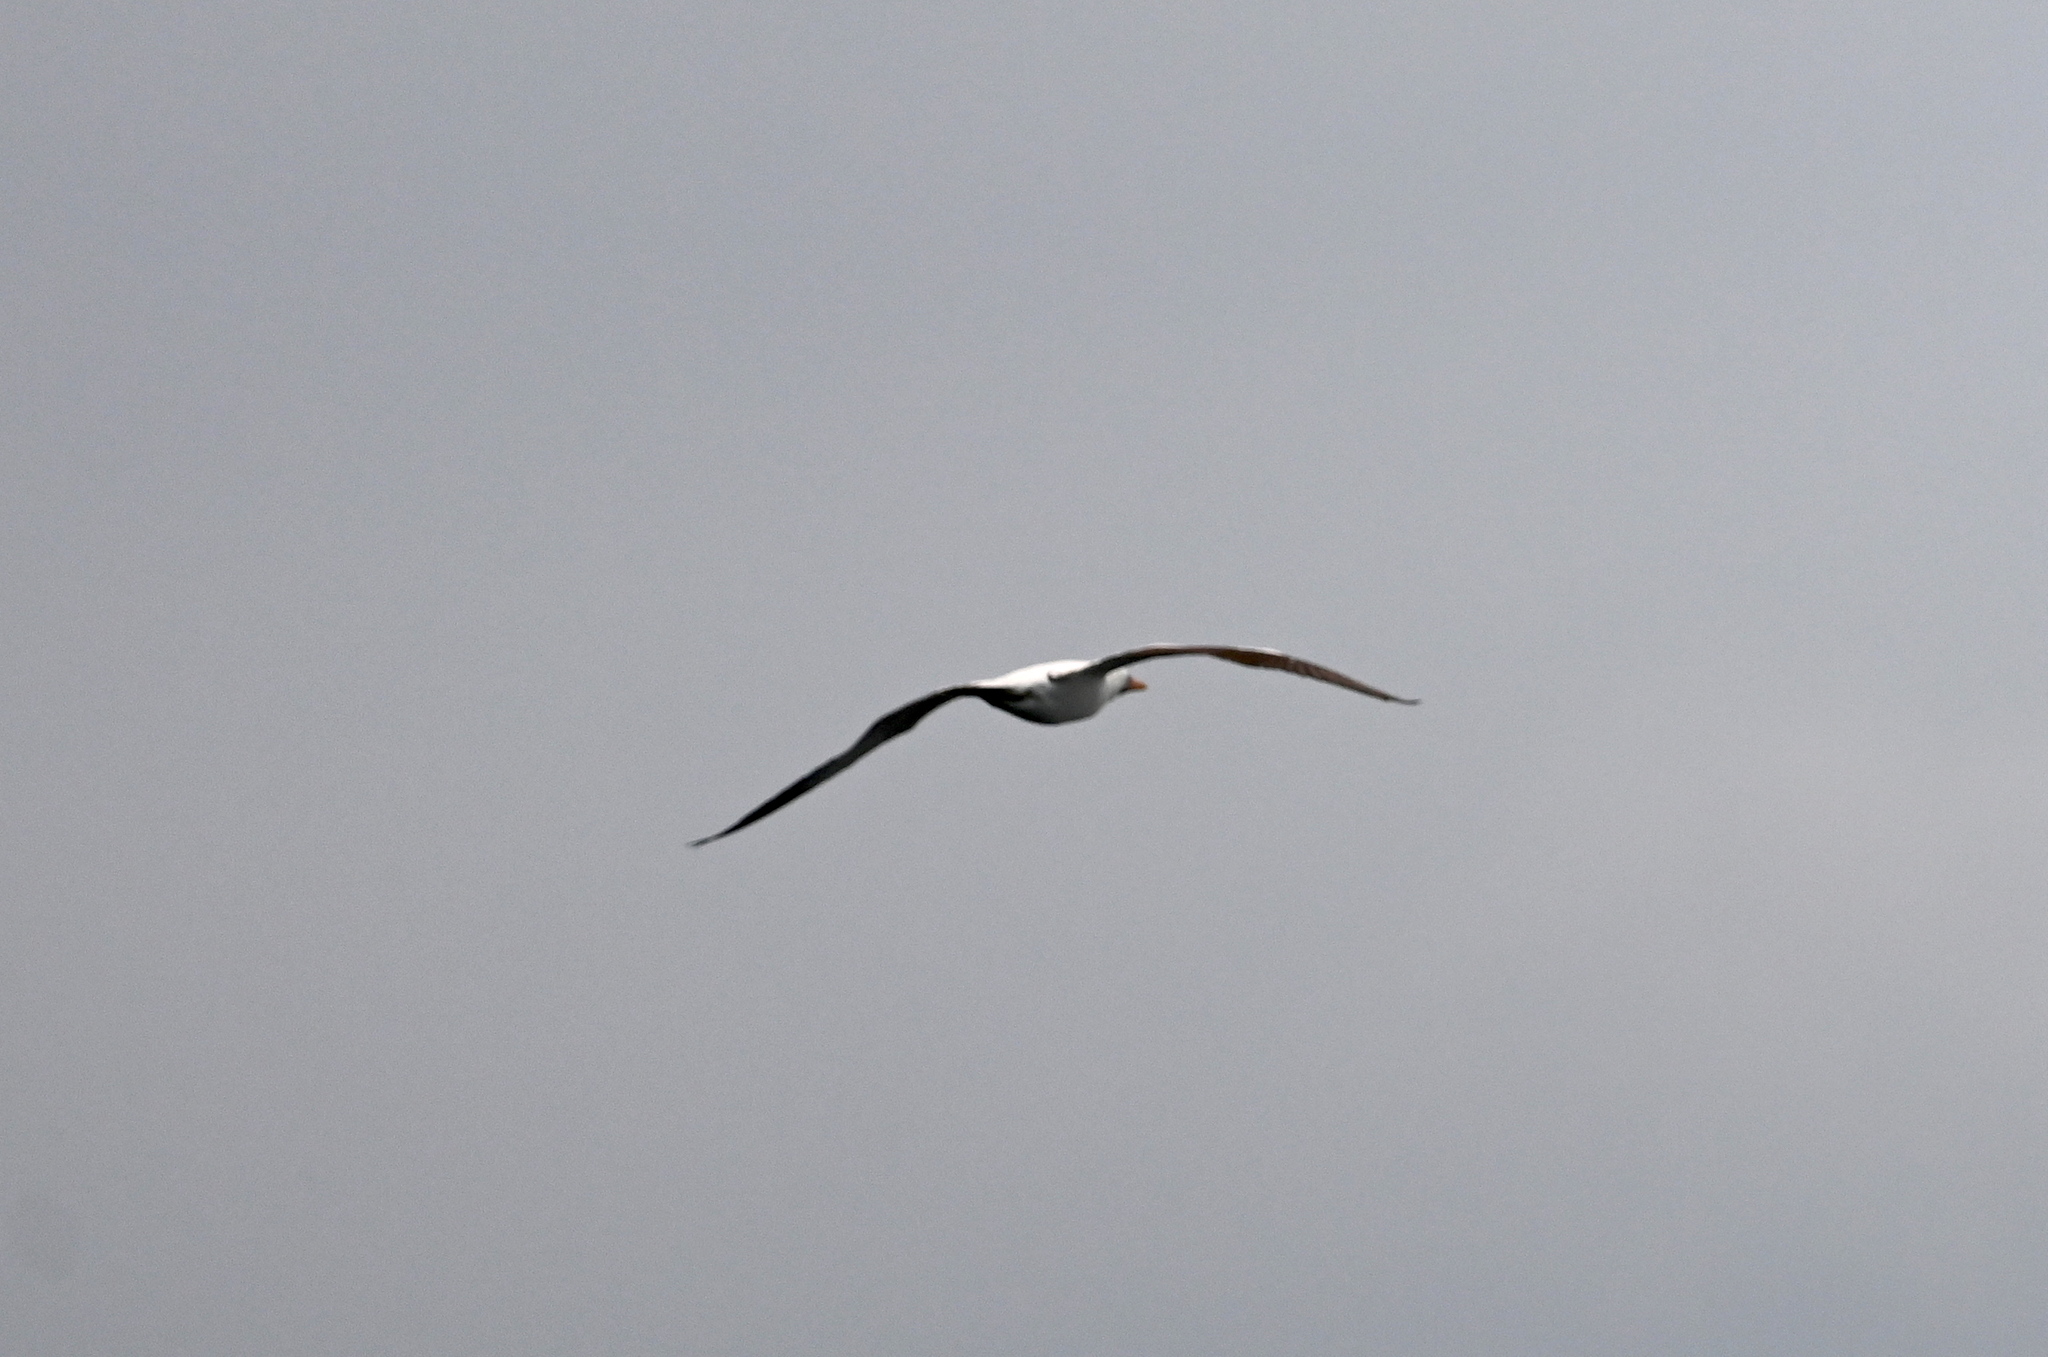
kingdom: Animalia
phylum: Chordata
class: Aves
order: Suliformes
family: Sulidae
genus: Sula
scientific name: Sula granti
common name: Nazca booby
